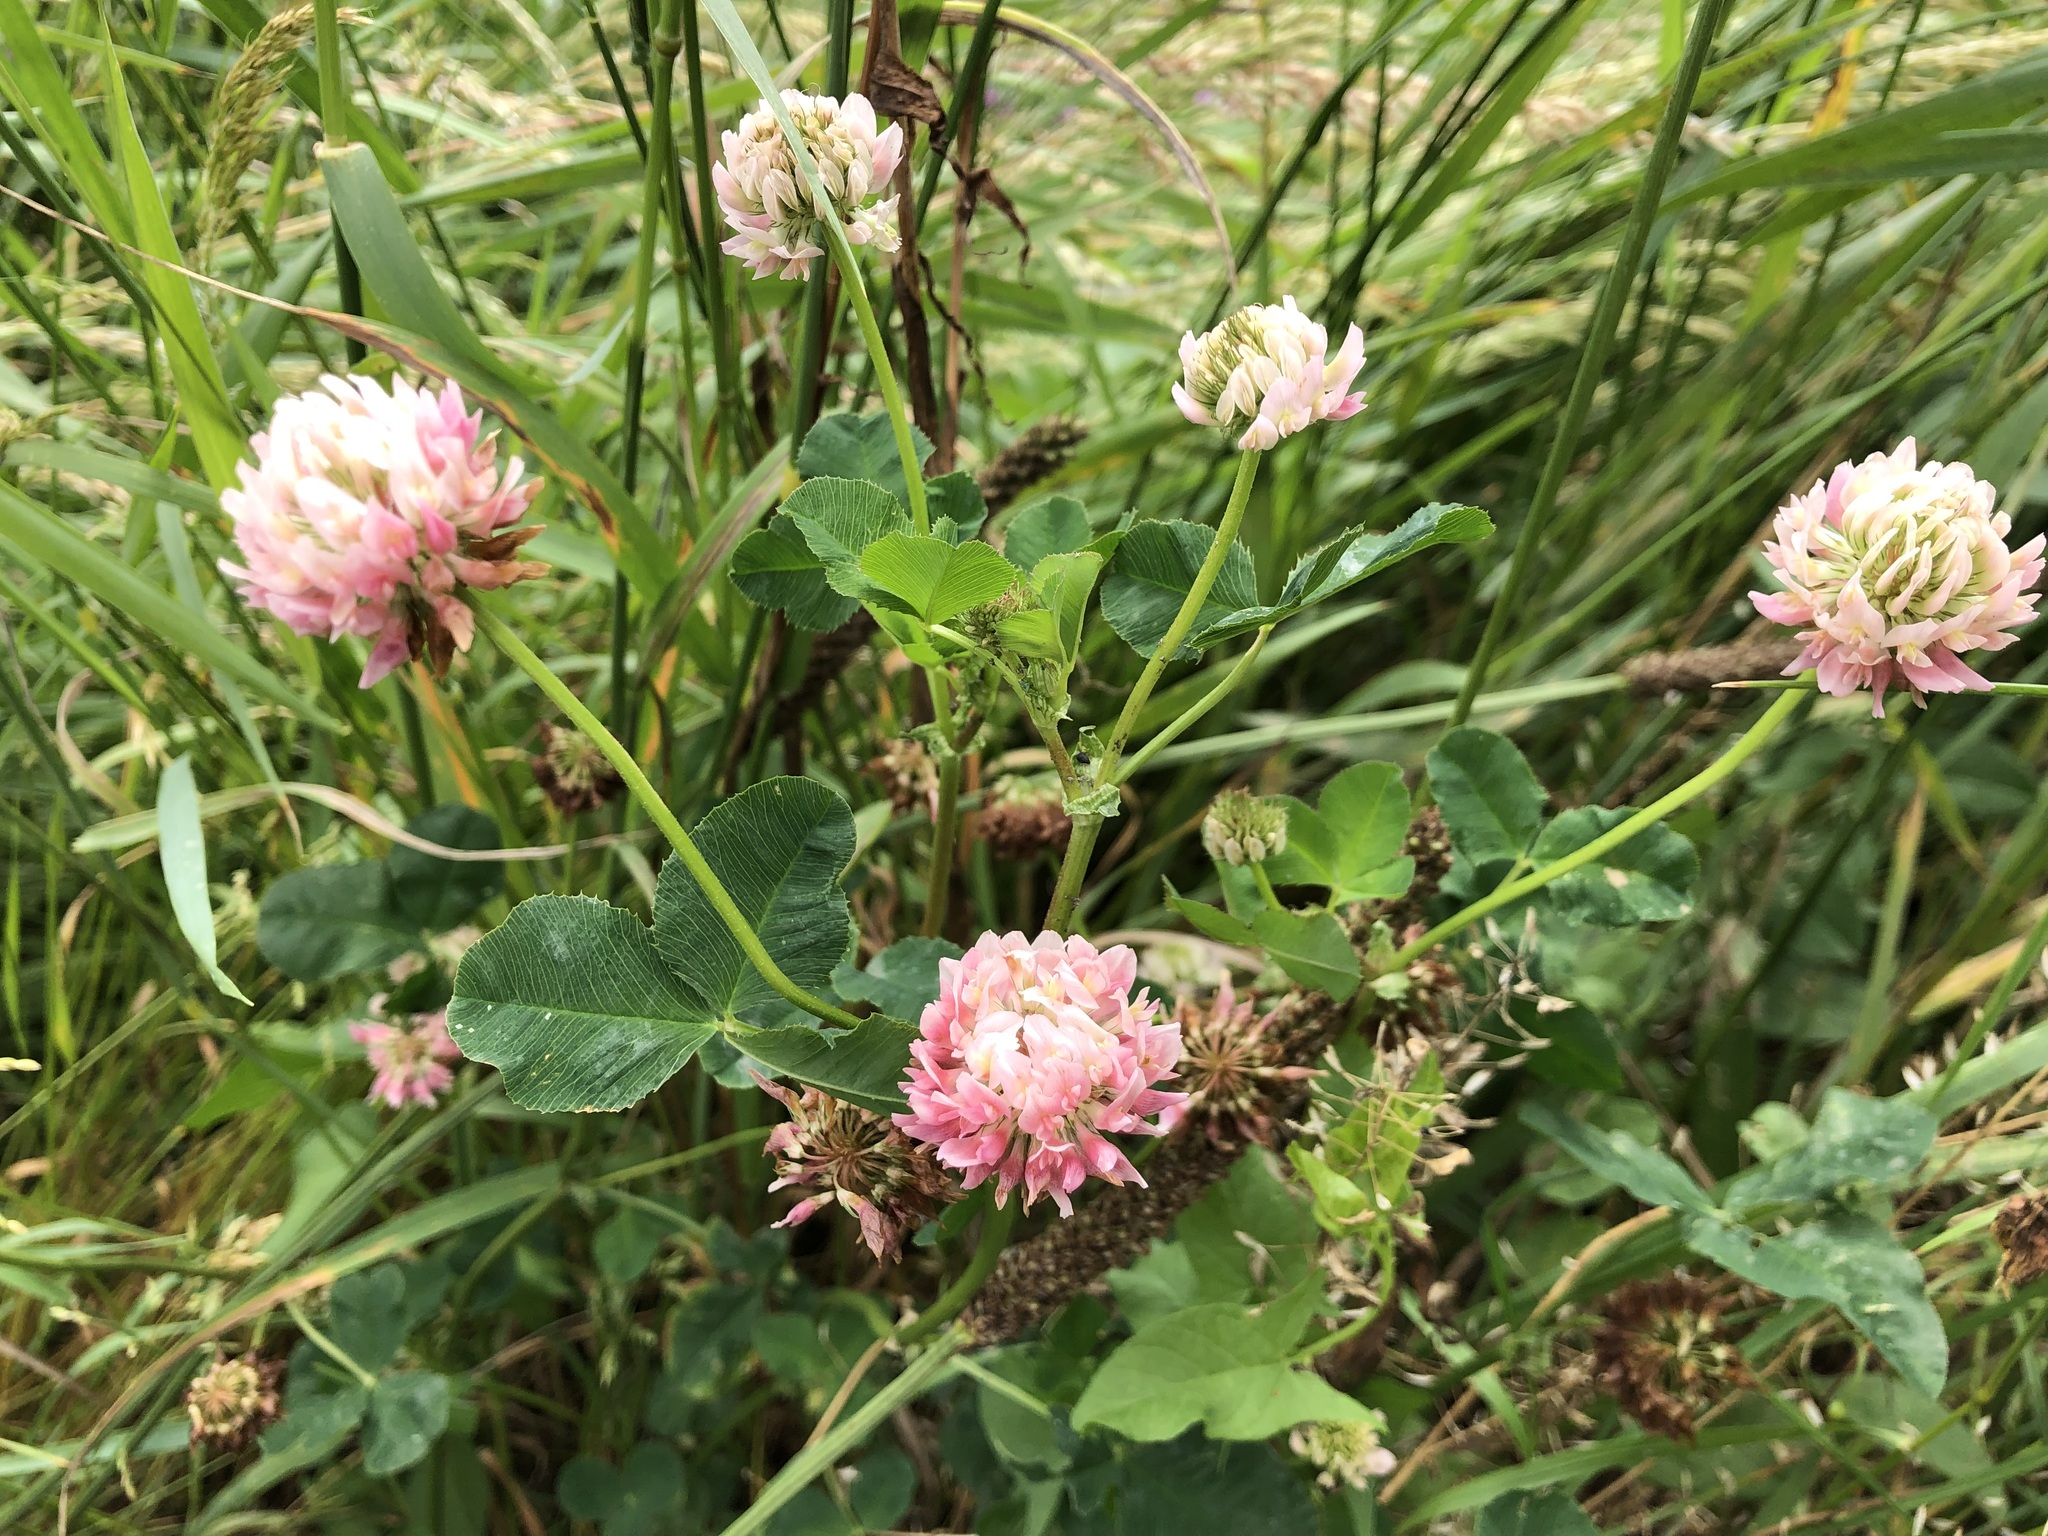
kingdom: Plantae
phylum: Tracheophyta
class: Magnoliopsida
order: Fabales
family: Fabaceae
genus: Trifolium
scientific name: Trifolium hybridum
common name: Alsike clover
